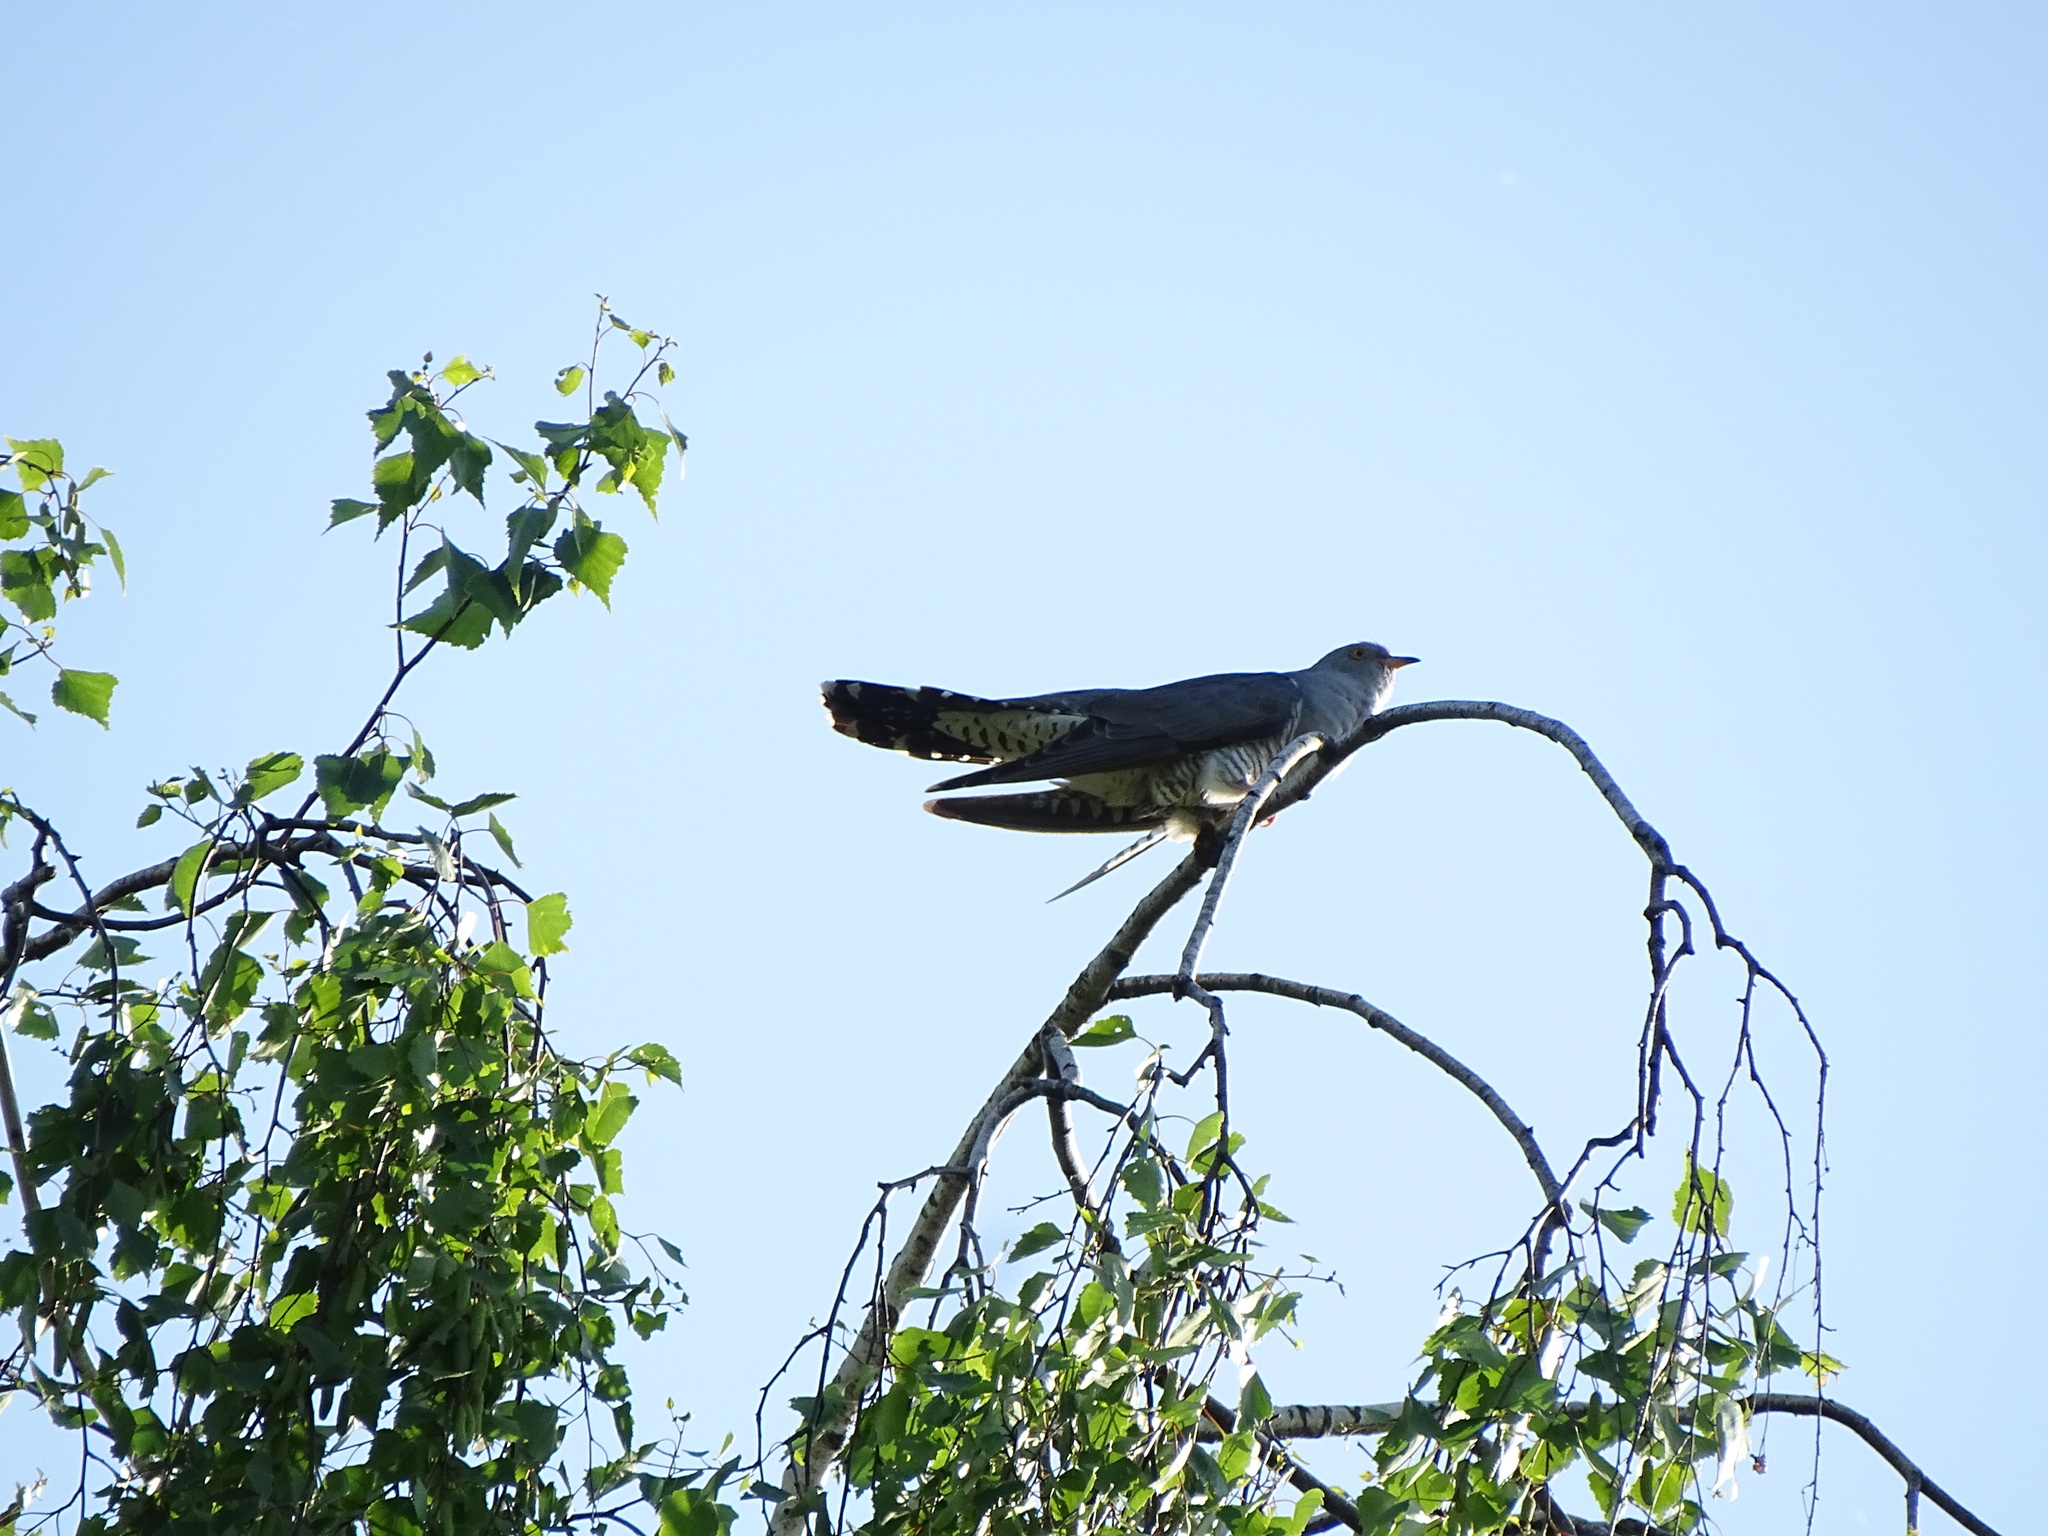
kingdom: Animalia
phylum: Chordata
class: Aves
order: Cuculiformes
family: Cuculidae
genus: Cuculus
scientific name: Cuculus canorus
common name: Common cuckoo
